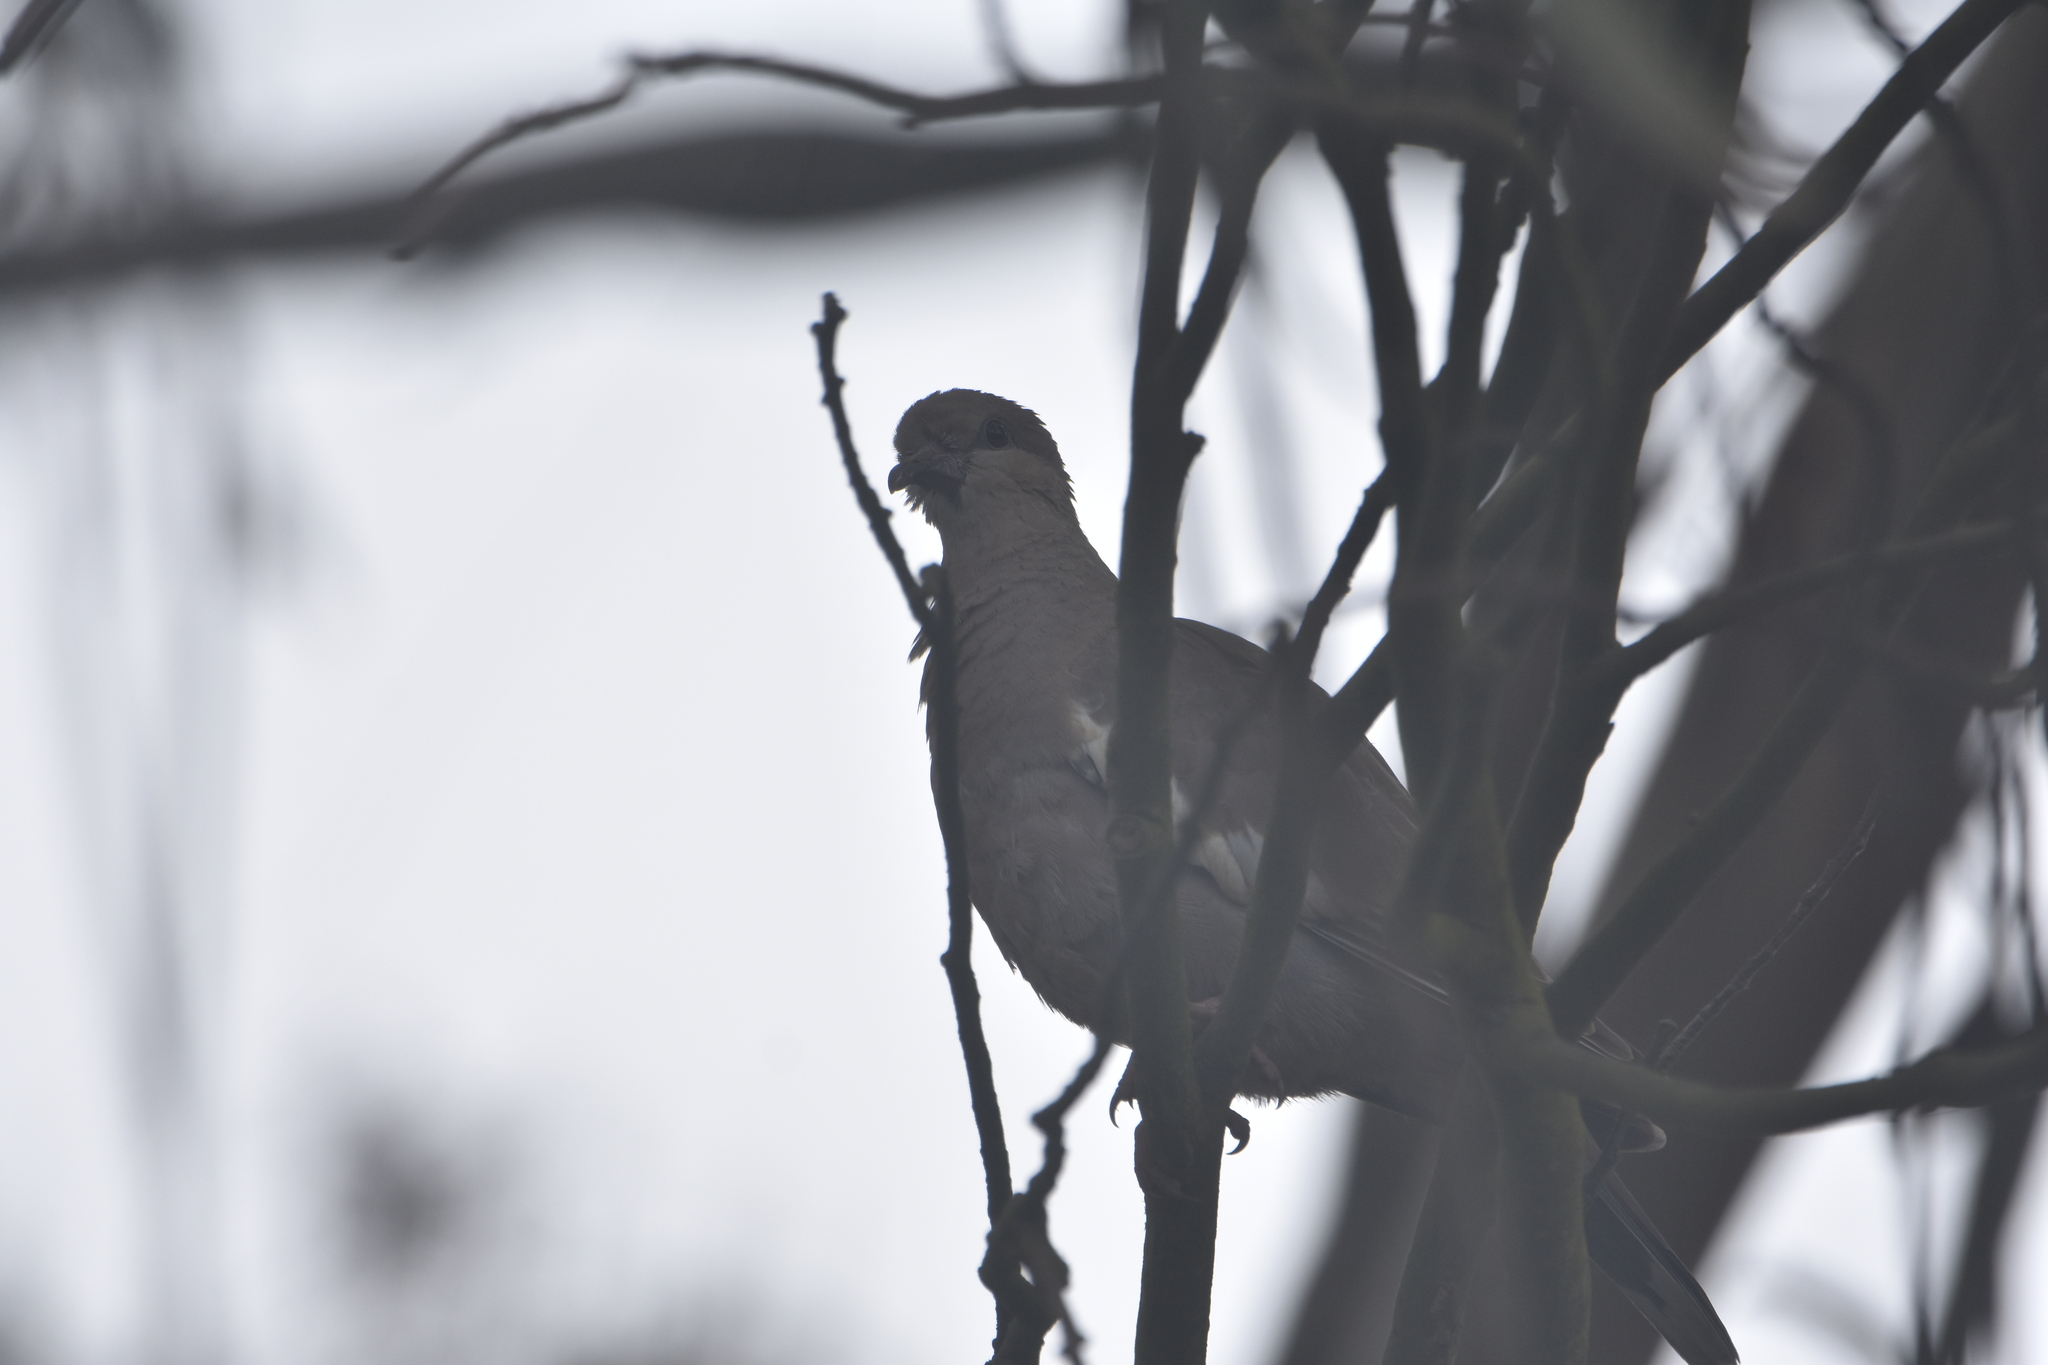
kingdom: Animalia
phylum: Chordata
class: Aves
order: Columbiformes
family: Columbidae
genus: Zenaida
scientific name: Zenaida meloda
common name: West peruvian dove
